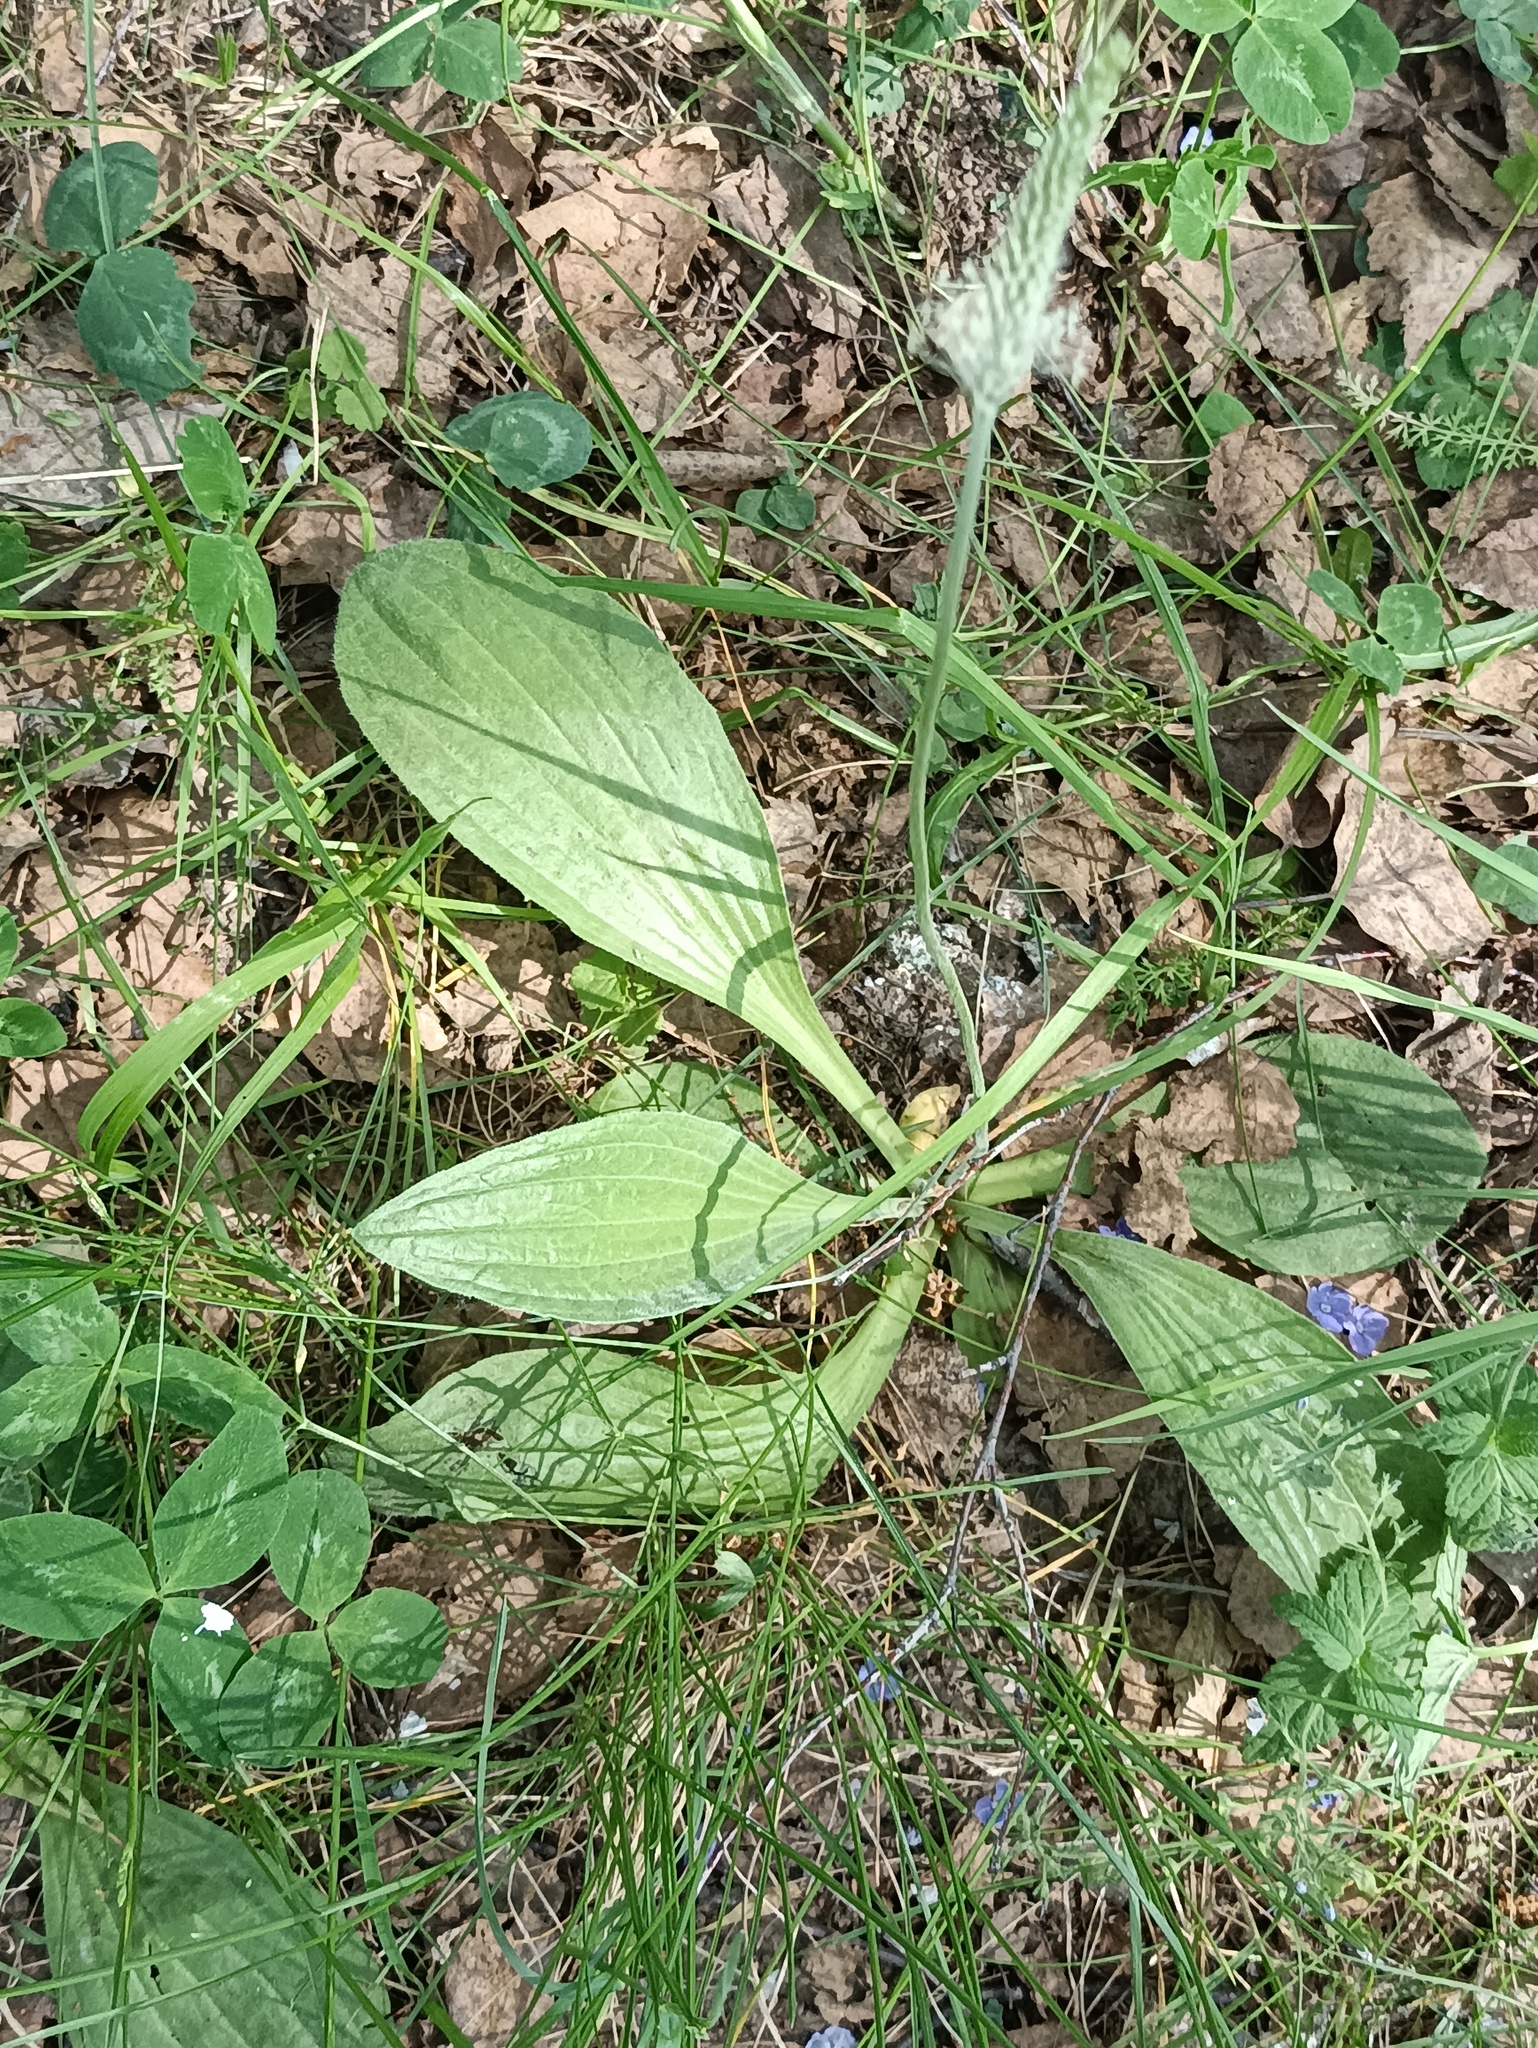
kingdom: Plantae
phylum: Tracheophyta
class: Magnoliopsida
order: Lamiales
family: Plantaginaceae
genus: Plantago
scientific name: Plantago urvillei
